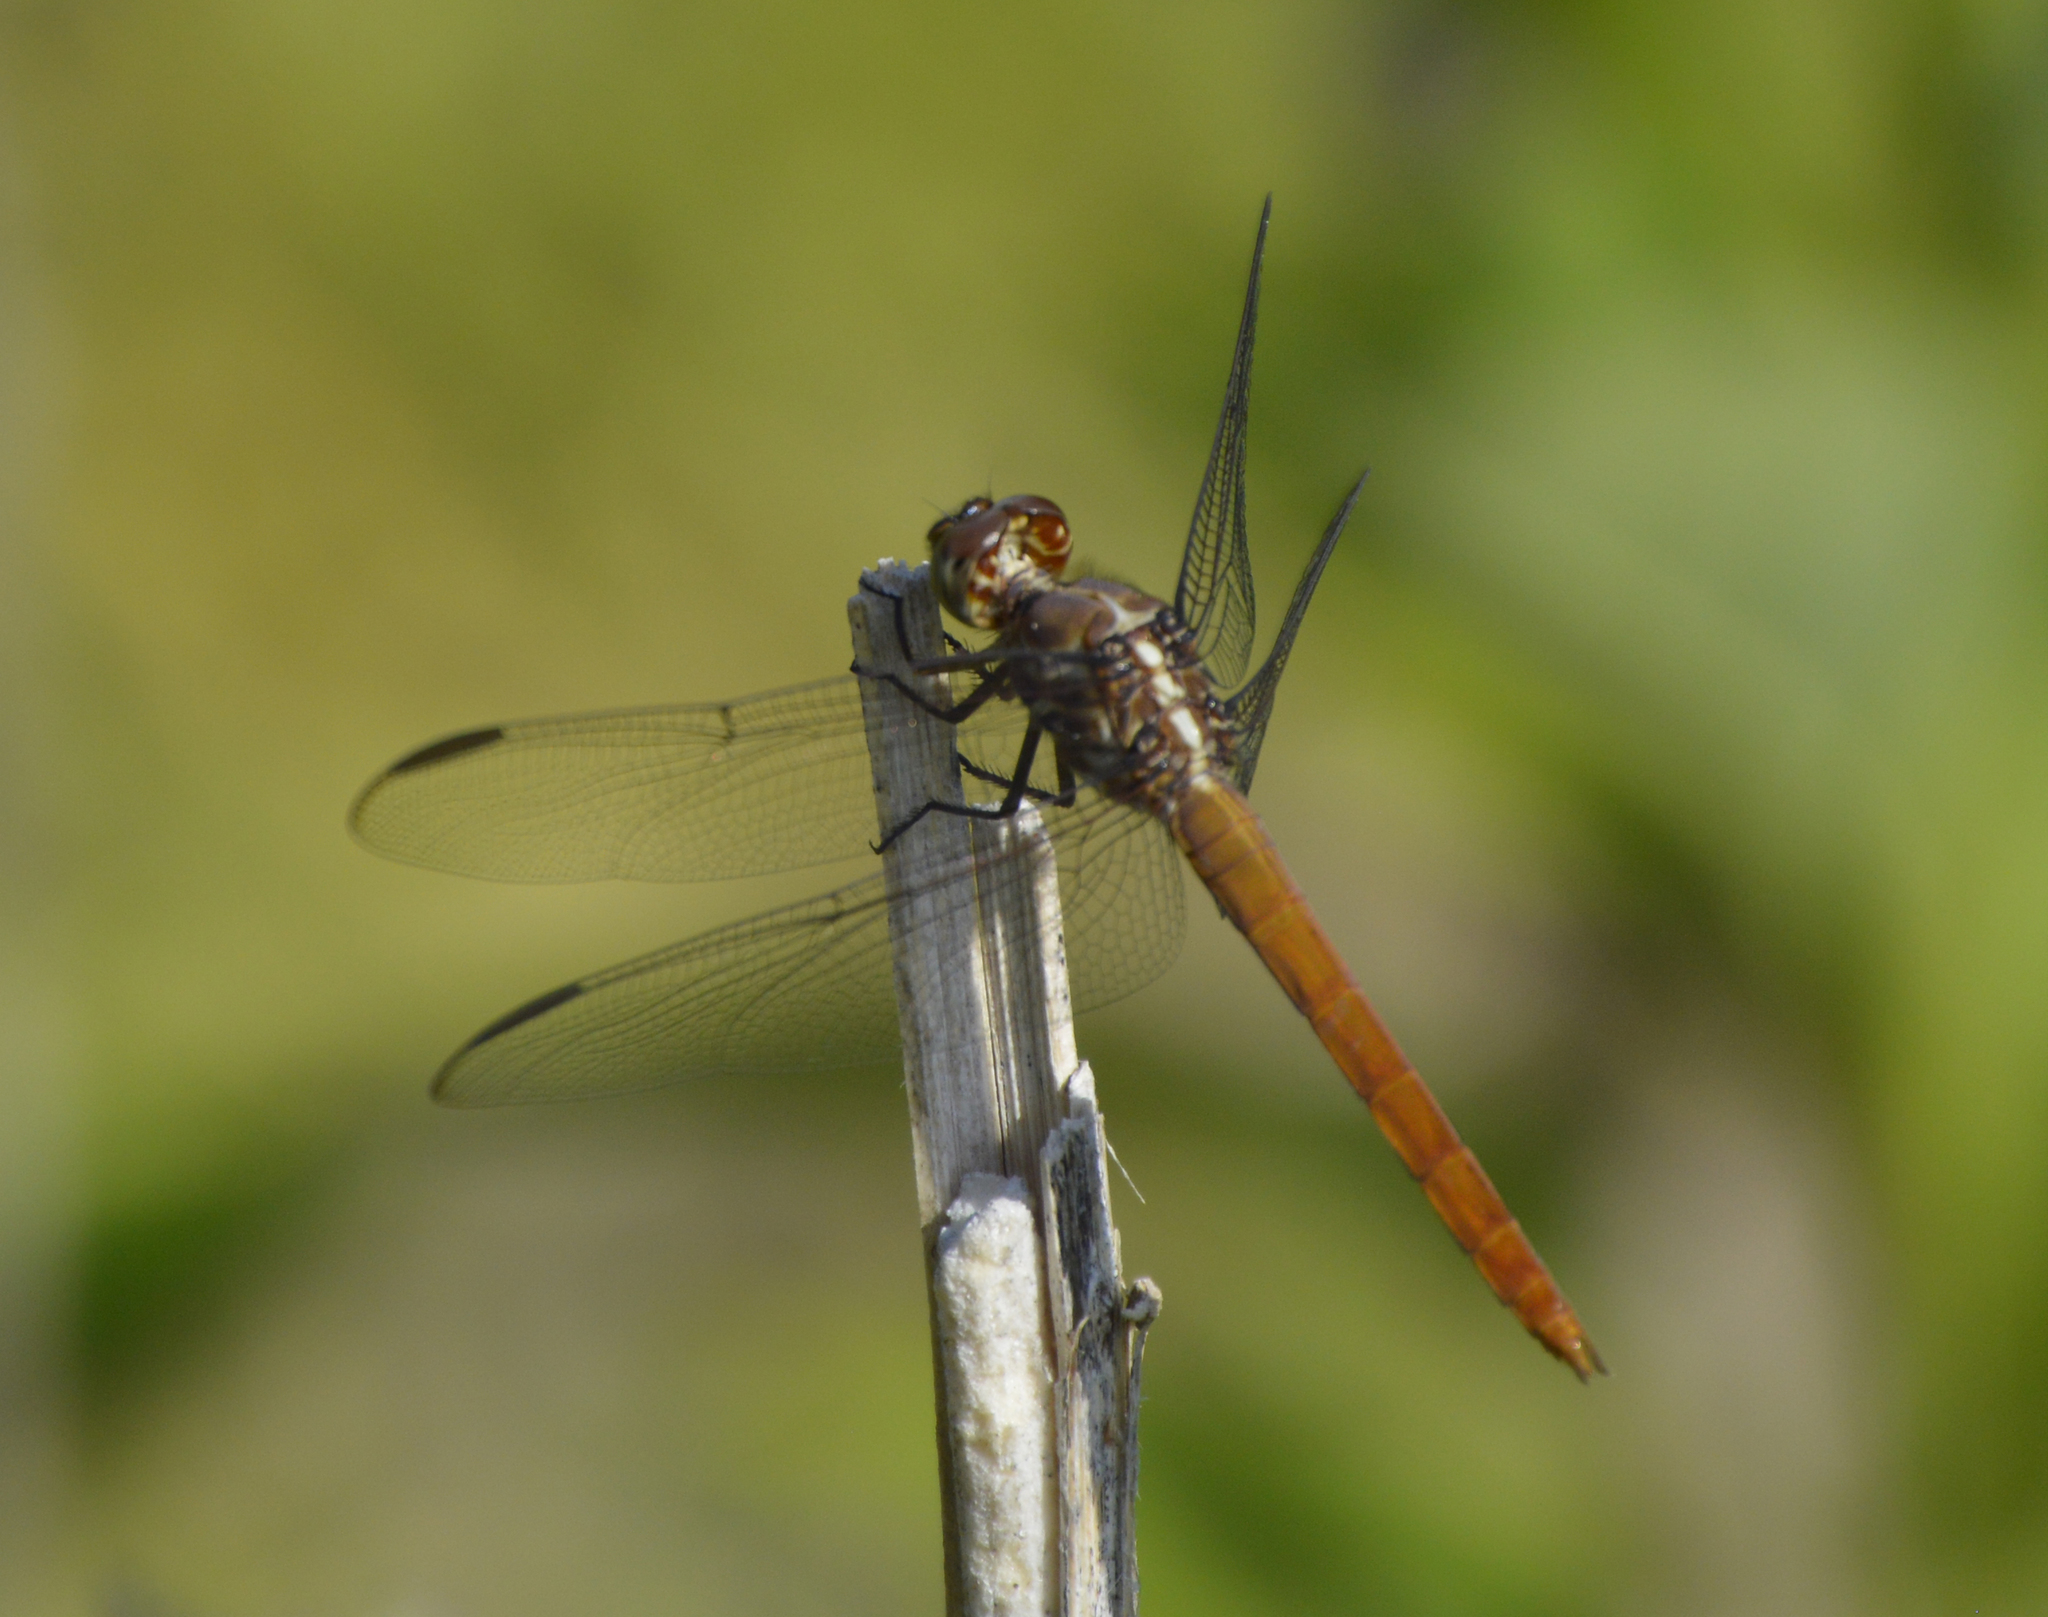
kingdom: Animalia
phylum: Arthropoda
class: Insecta
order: Odonata
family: Libellulidae
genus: Orthemis
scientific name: Orthemis ferruginea
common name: Roseate skimmer
